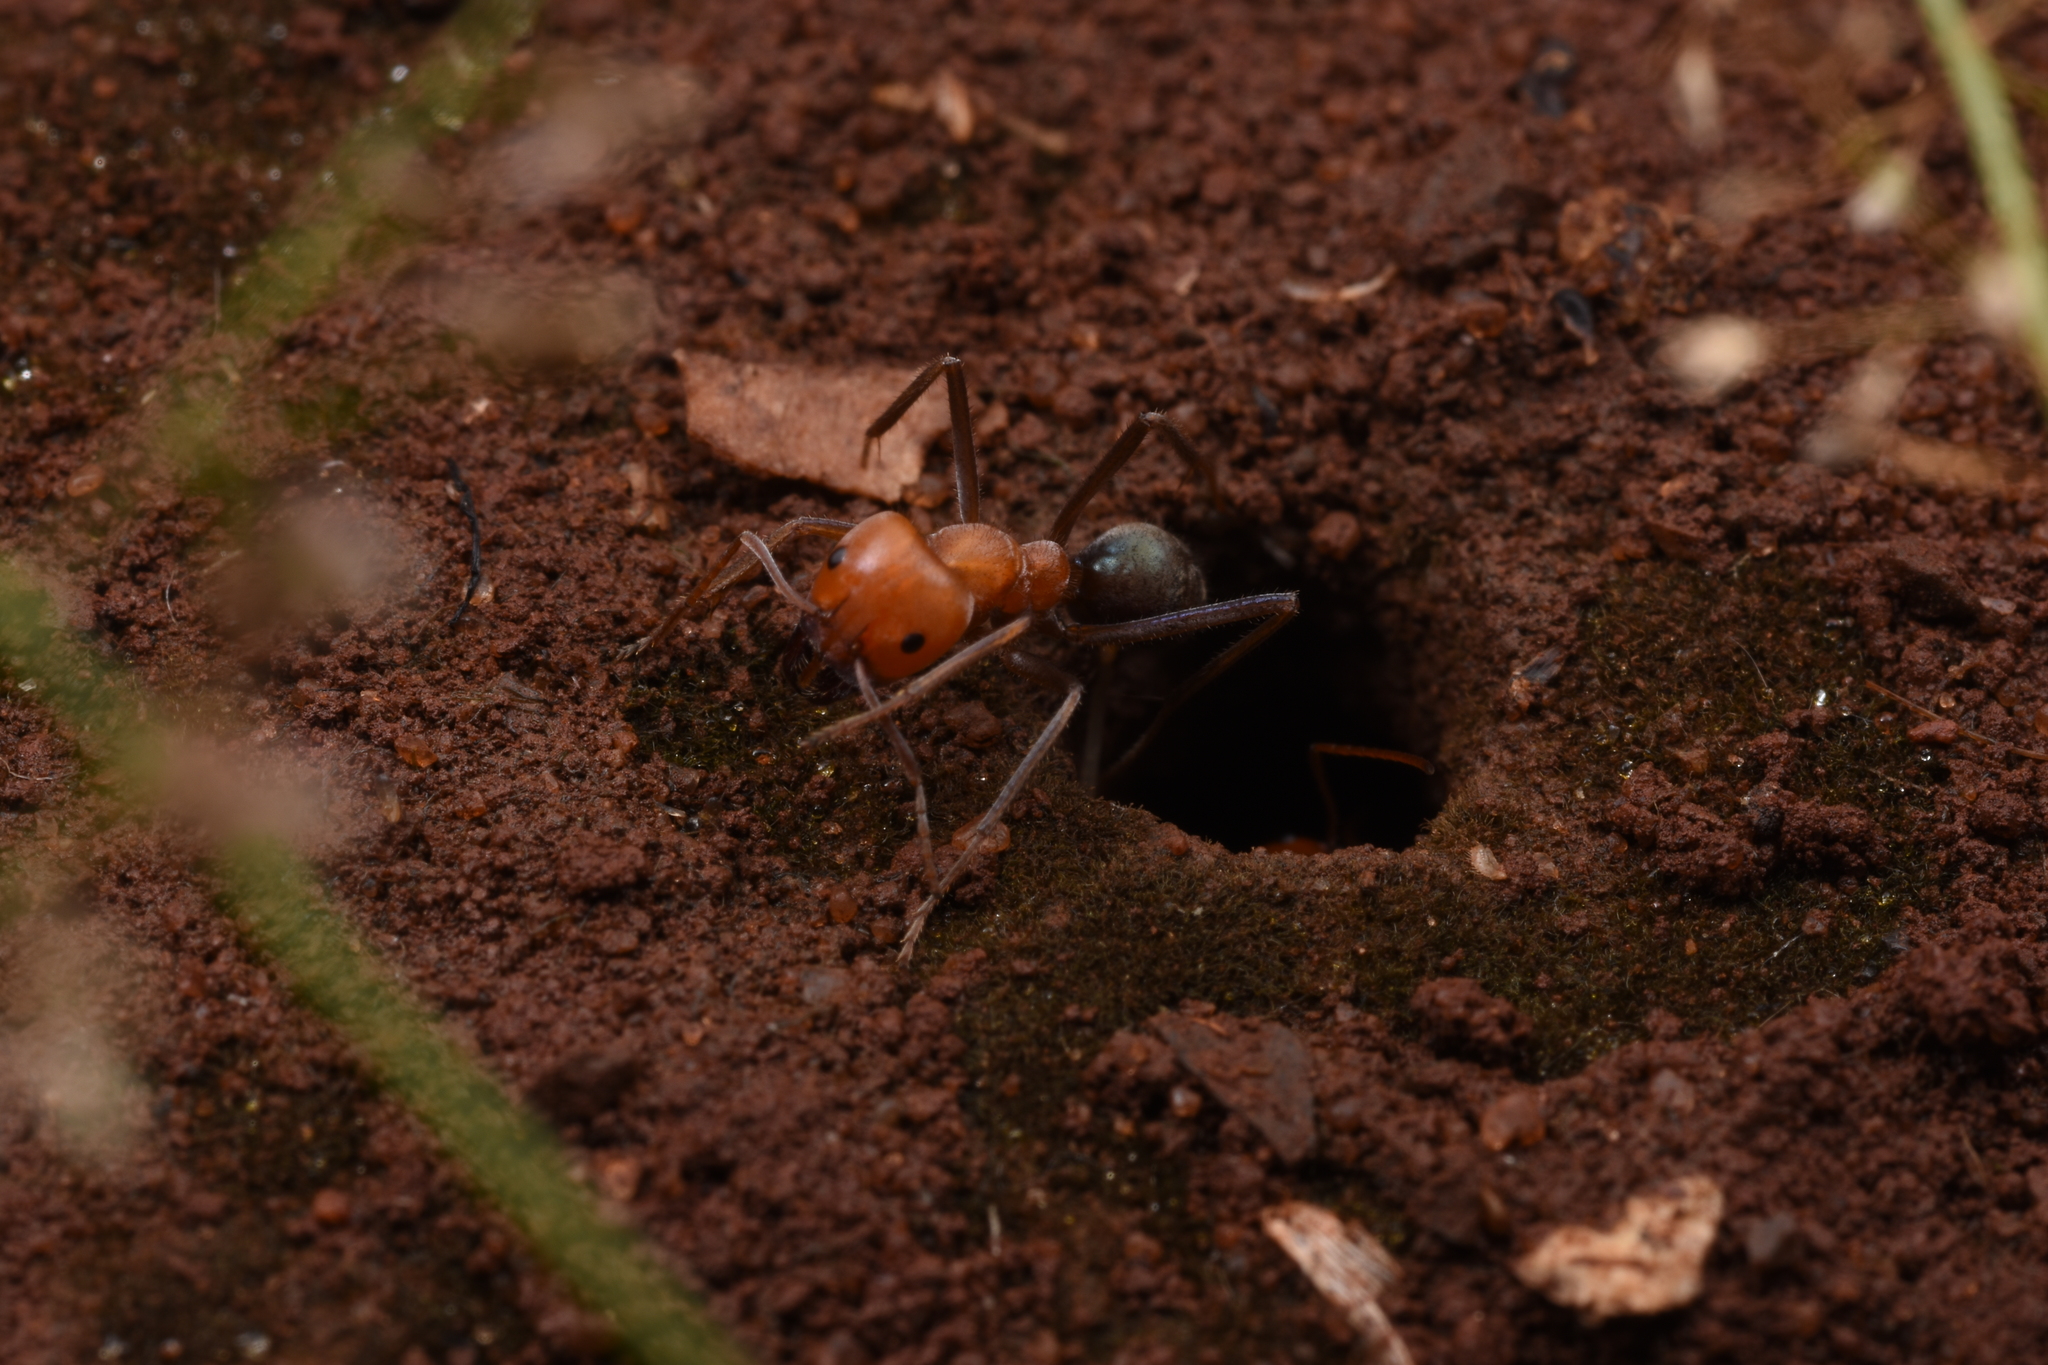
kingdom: Animalia
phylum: Arthropoda
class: Insecta
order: Hymenoptera
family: Formicidae
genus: Iridomyrmex
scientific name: Iridomyrmex sanguineus
